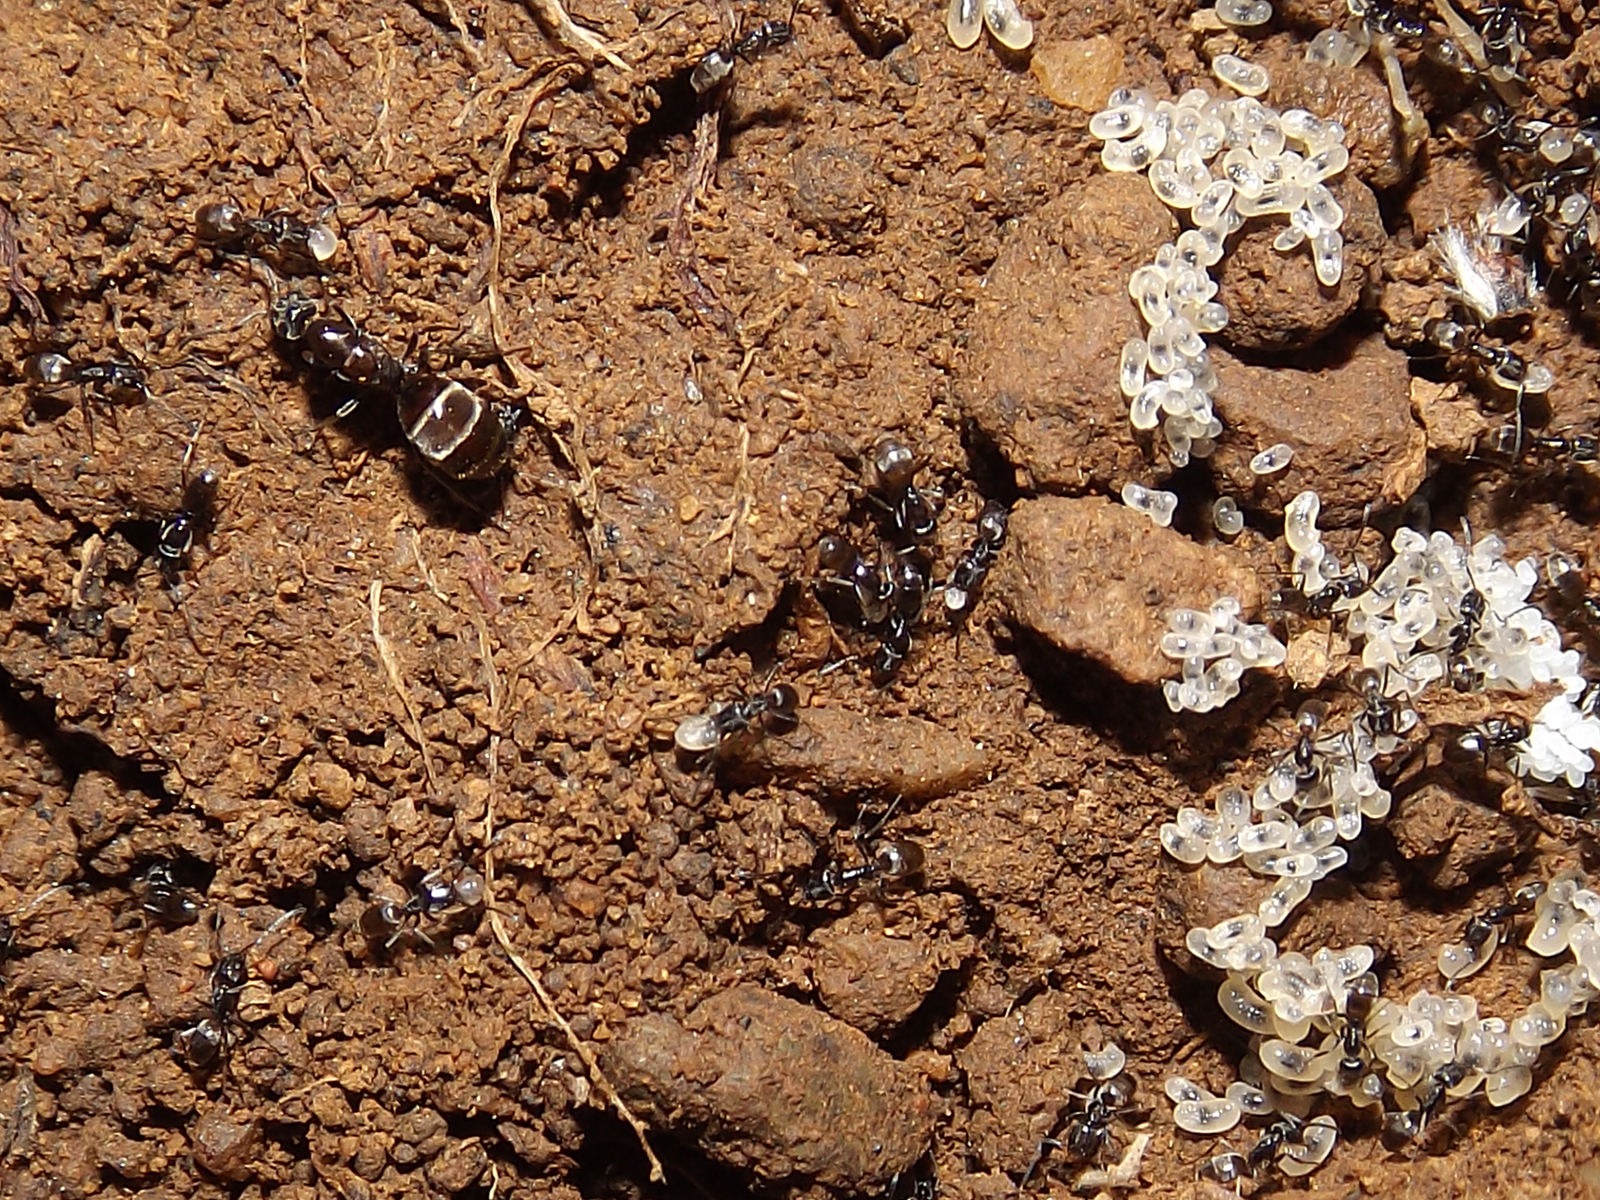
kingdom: Animalia
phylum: Arthropoda
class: Insecta
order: Hymenoptera
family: Formicidae
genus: Forelius
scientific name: Forelius antarcticus
